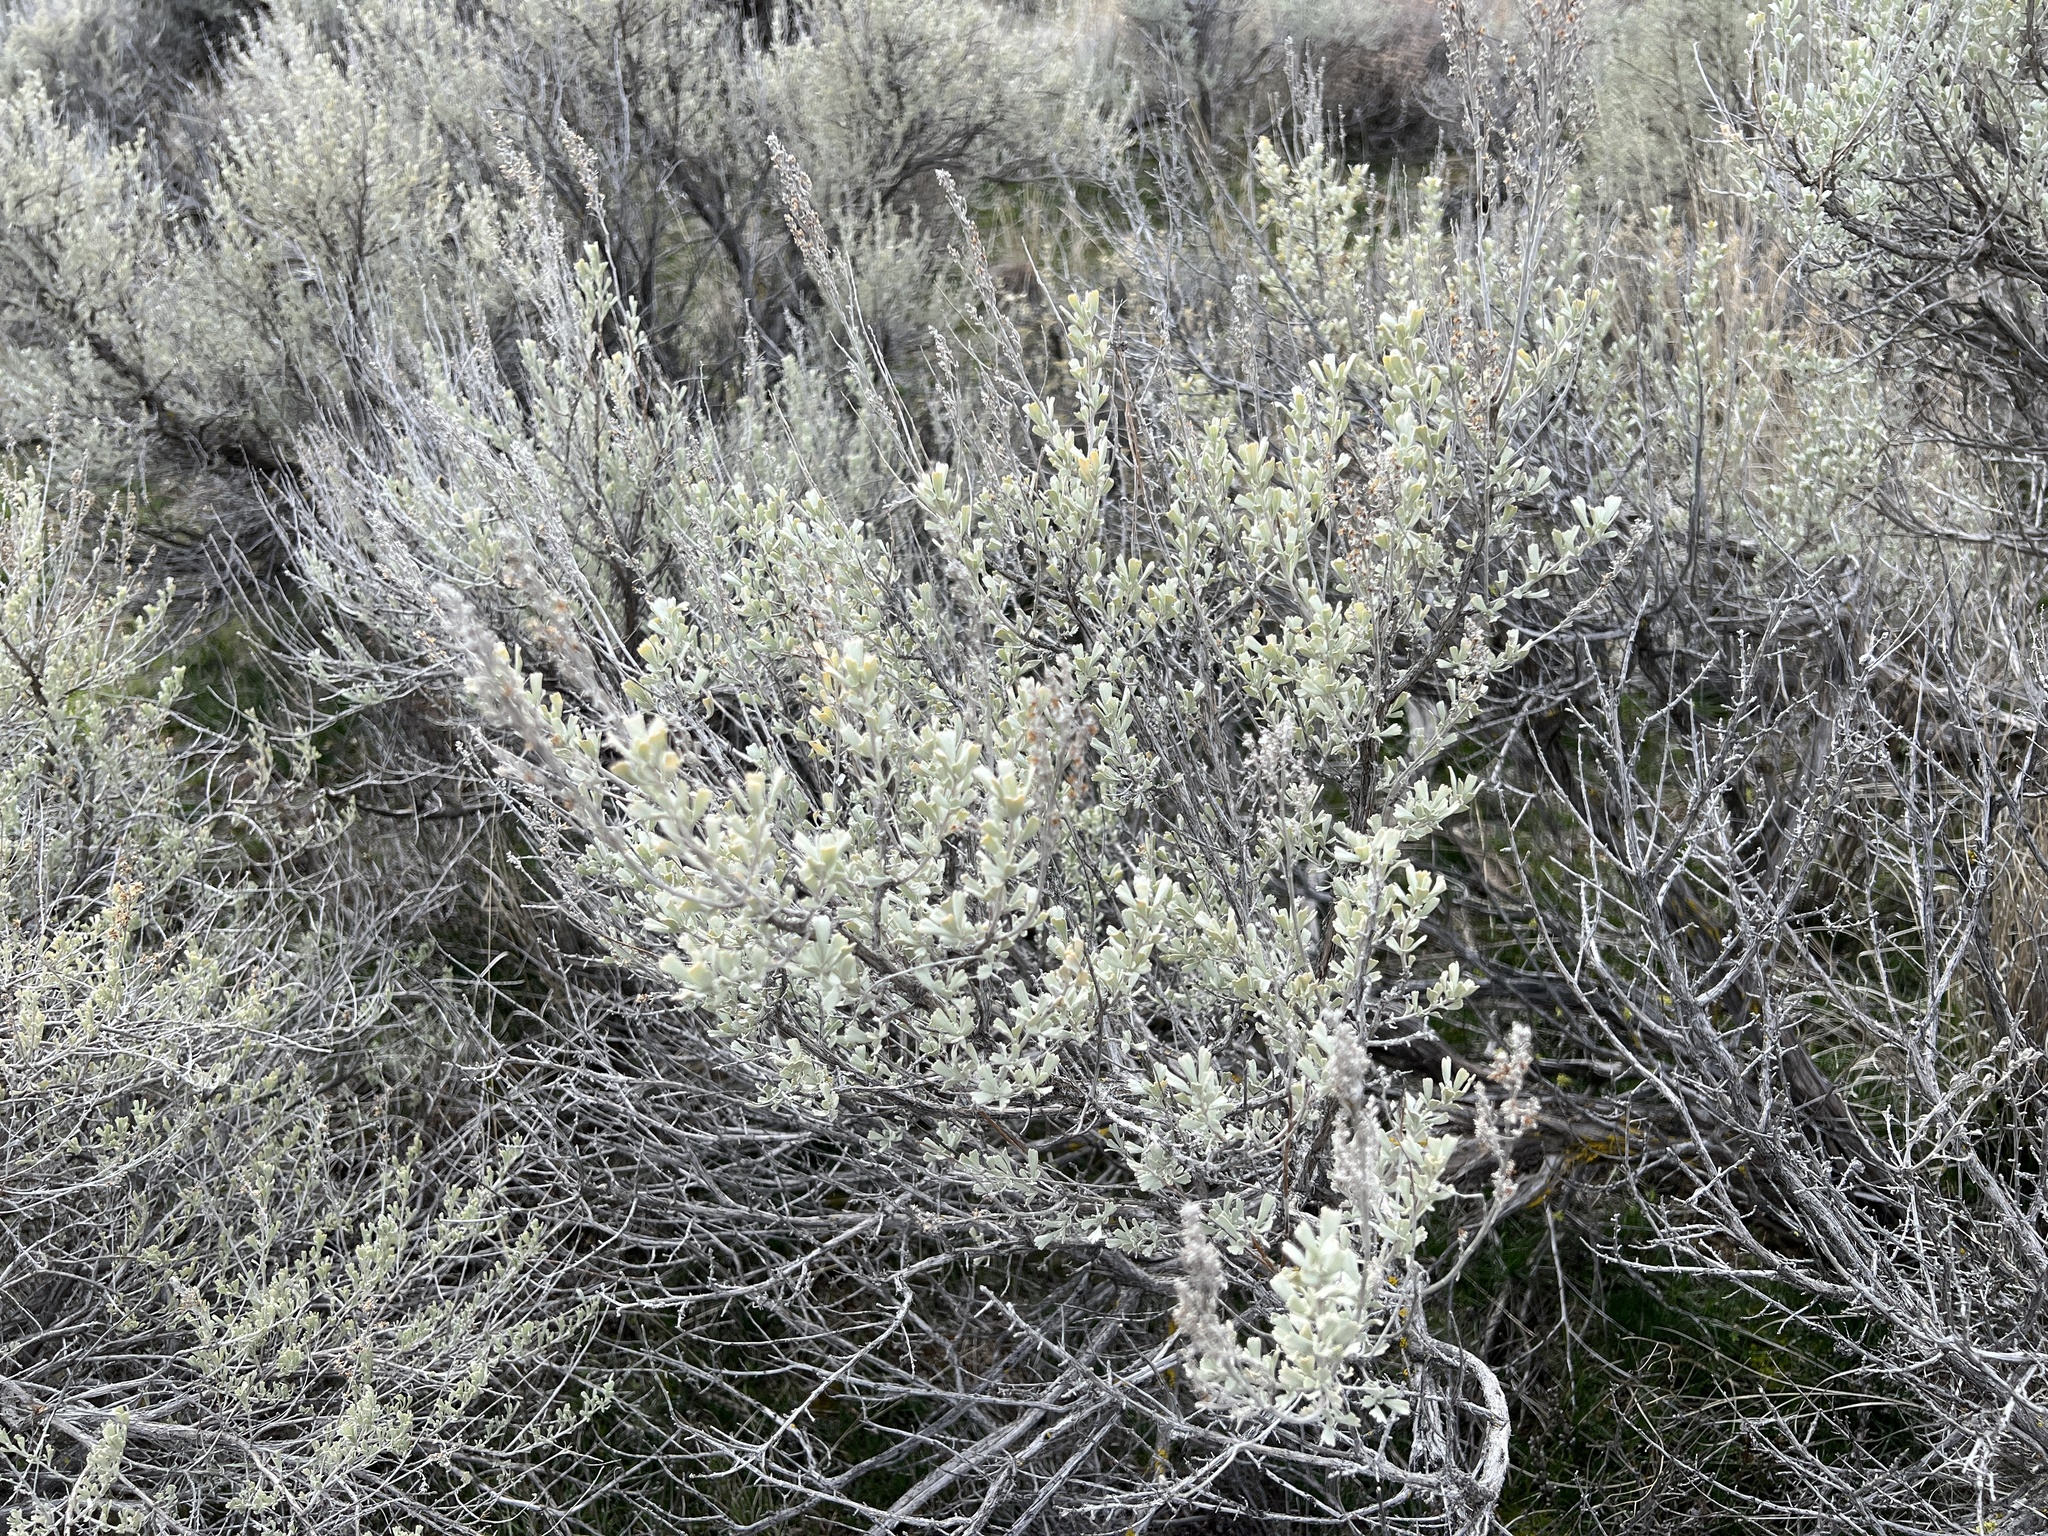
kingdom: Plantae
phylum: Tracheophyta
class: Magnoliopsida
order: Asterales
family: Asteraceae
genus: Artemisia
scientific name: Artemisia tridentata
